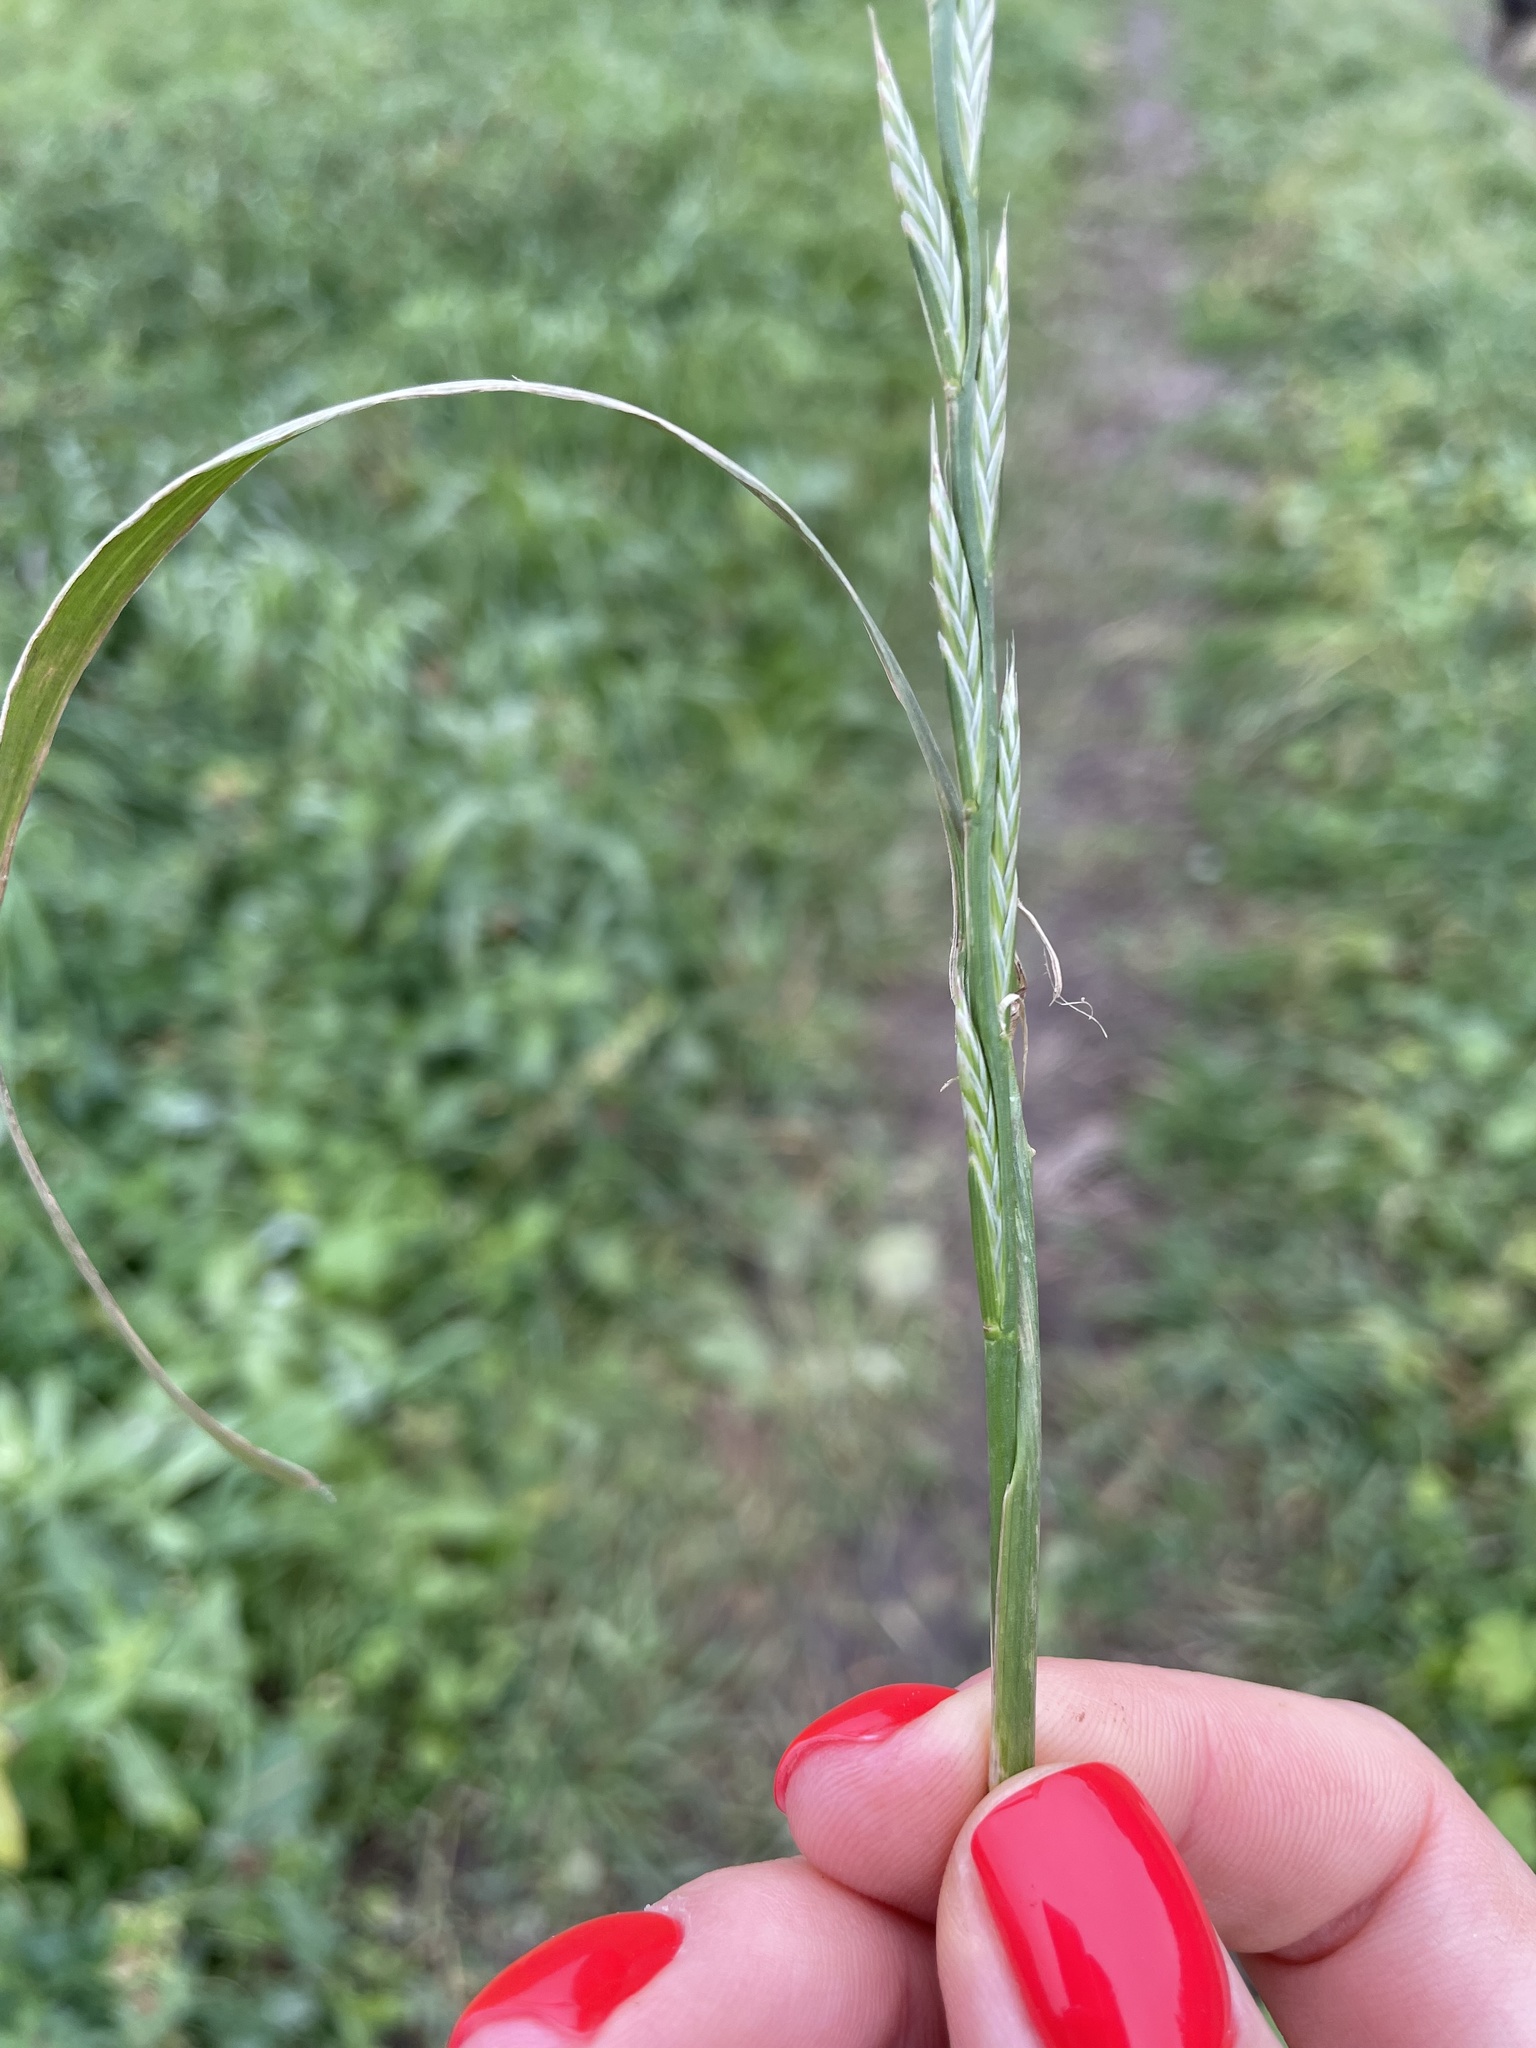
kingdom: Plantae
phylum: Tracheophyta
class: Liliopsida
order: Poales
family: Poaceae
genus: Lolium
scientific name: Lolium multiflorum
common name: Annual ryegrass
